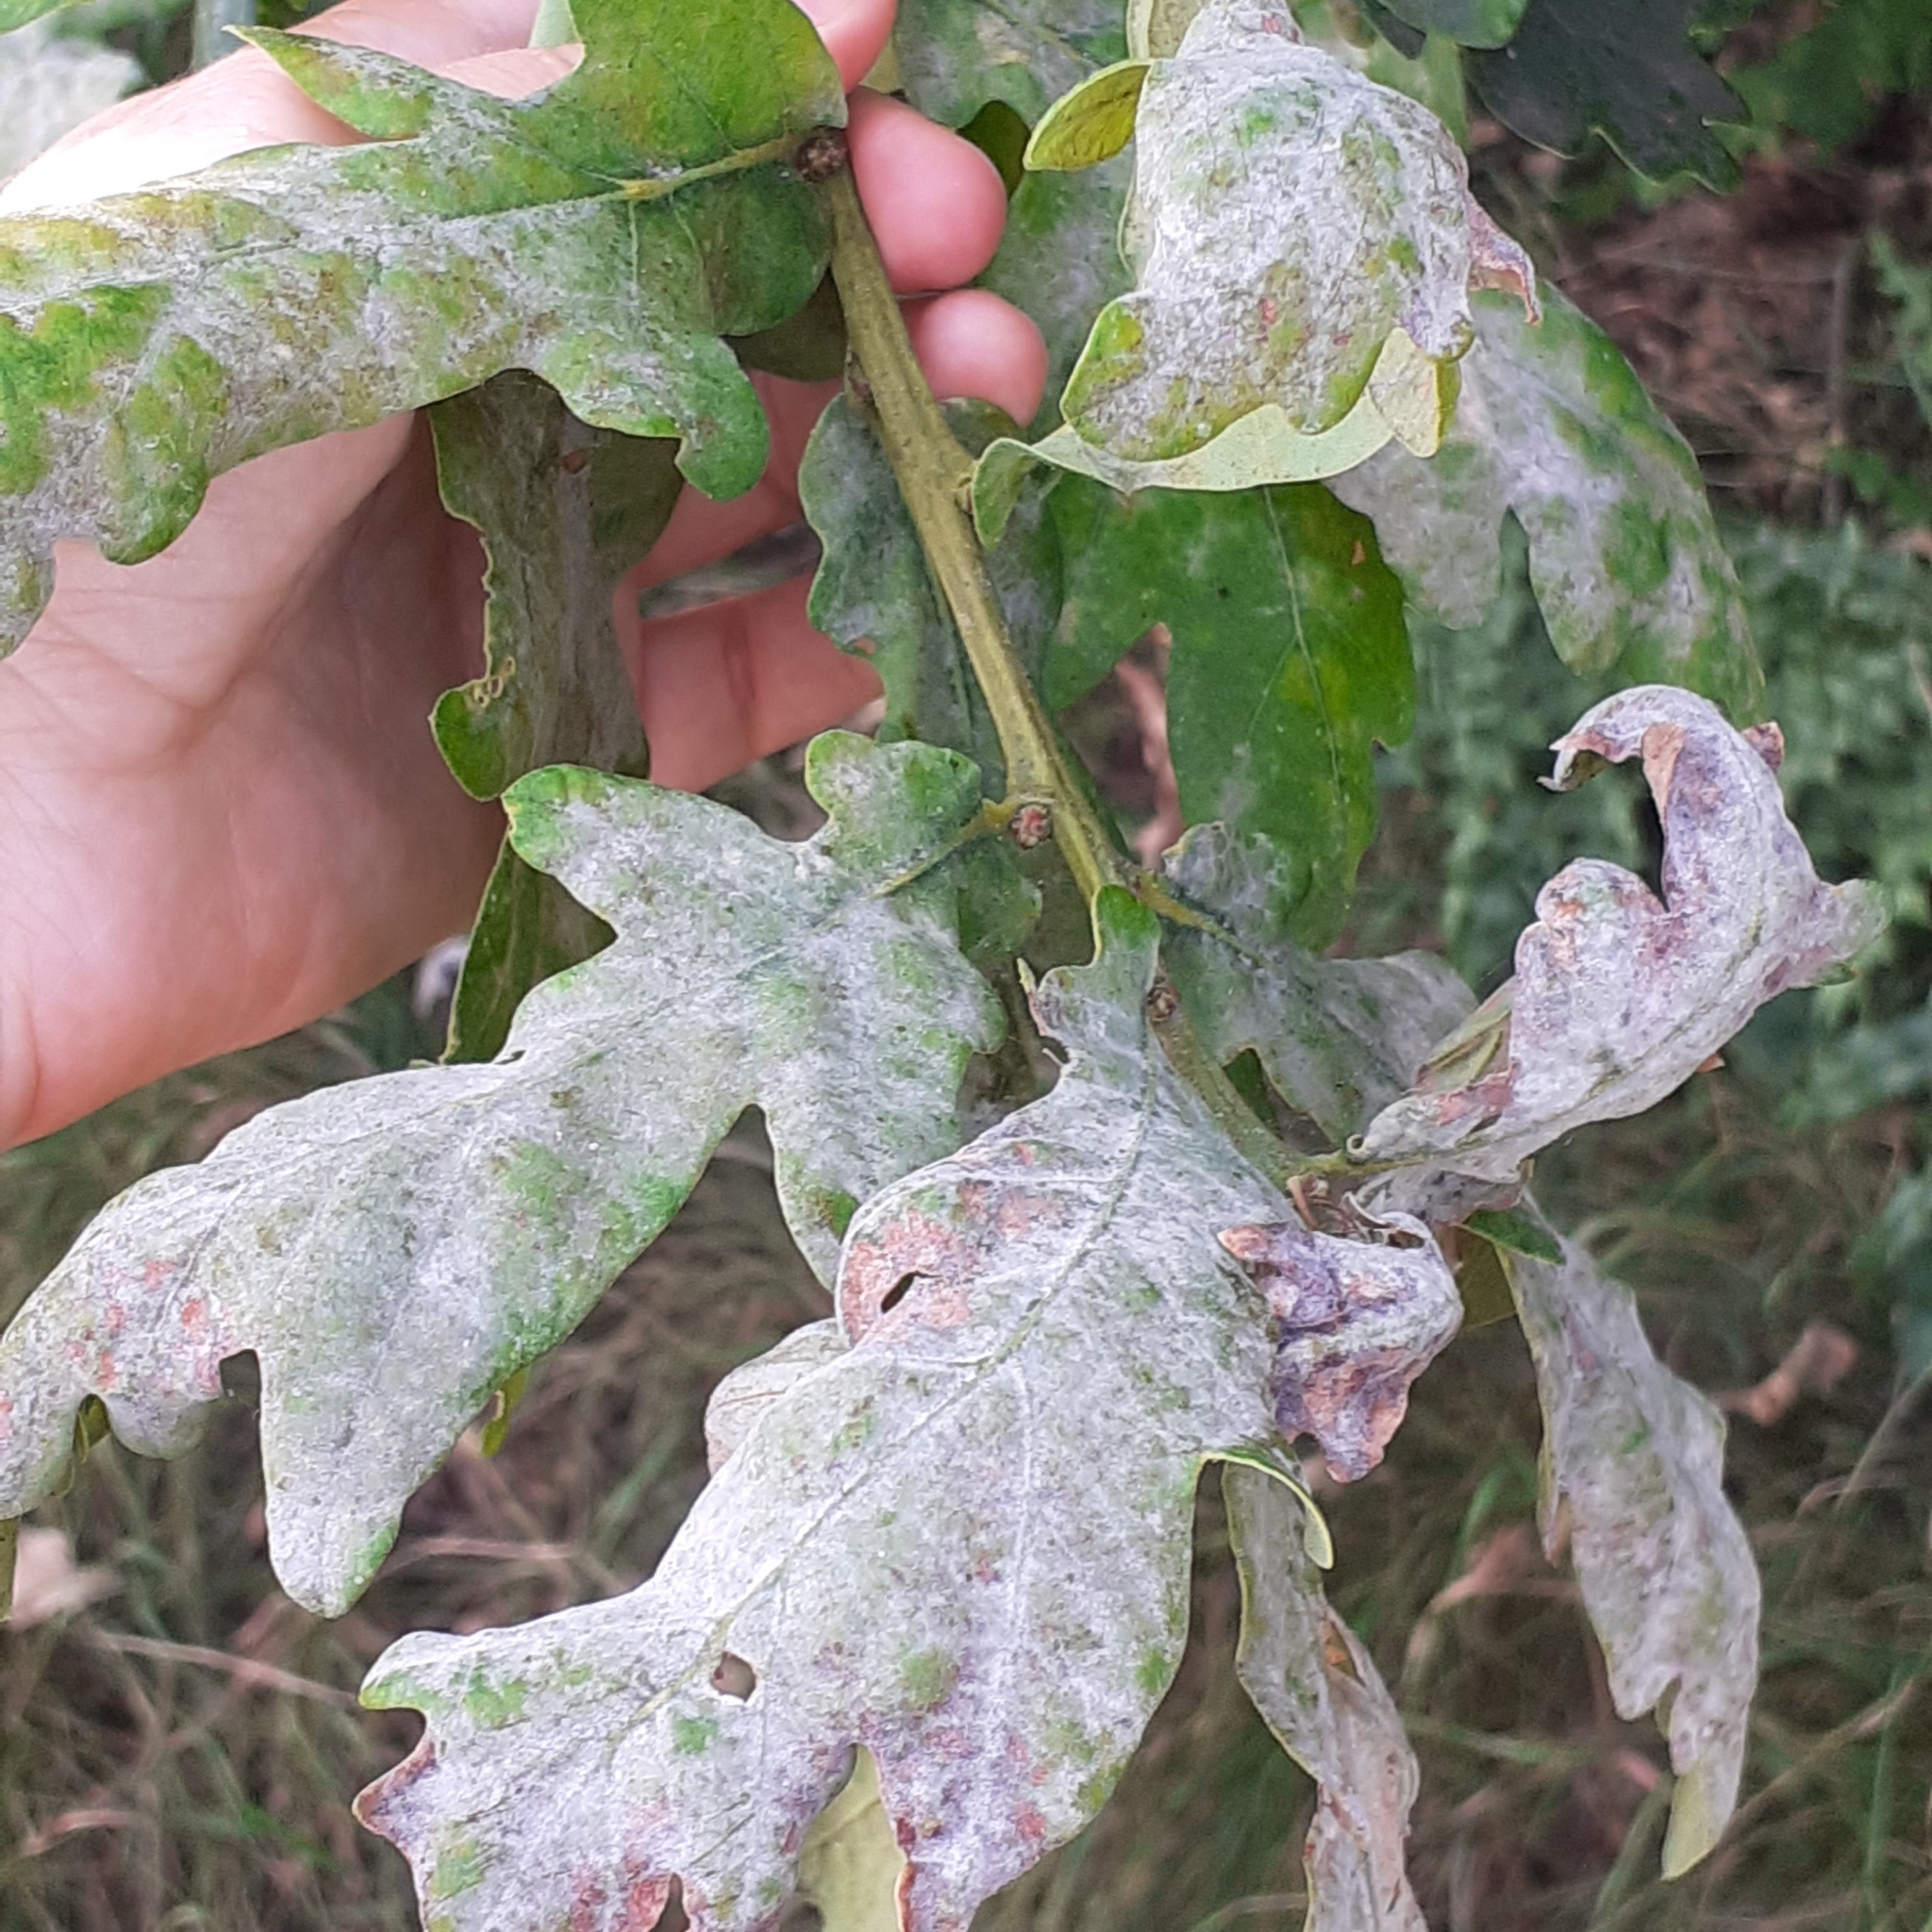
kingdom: Fungi
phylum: Ascomycota
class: Leotiomycetes
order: Helotiales
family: Erysiphaceae
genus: Erysiphe
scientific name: Erysiphe alphitoides
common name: Oak mildew
